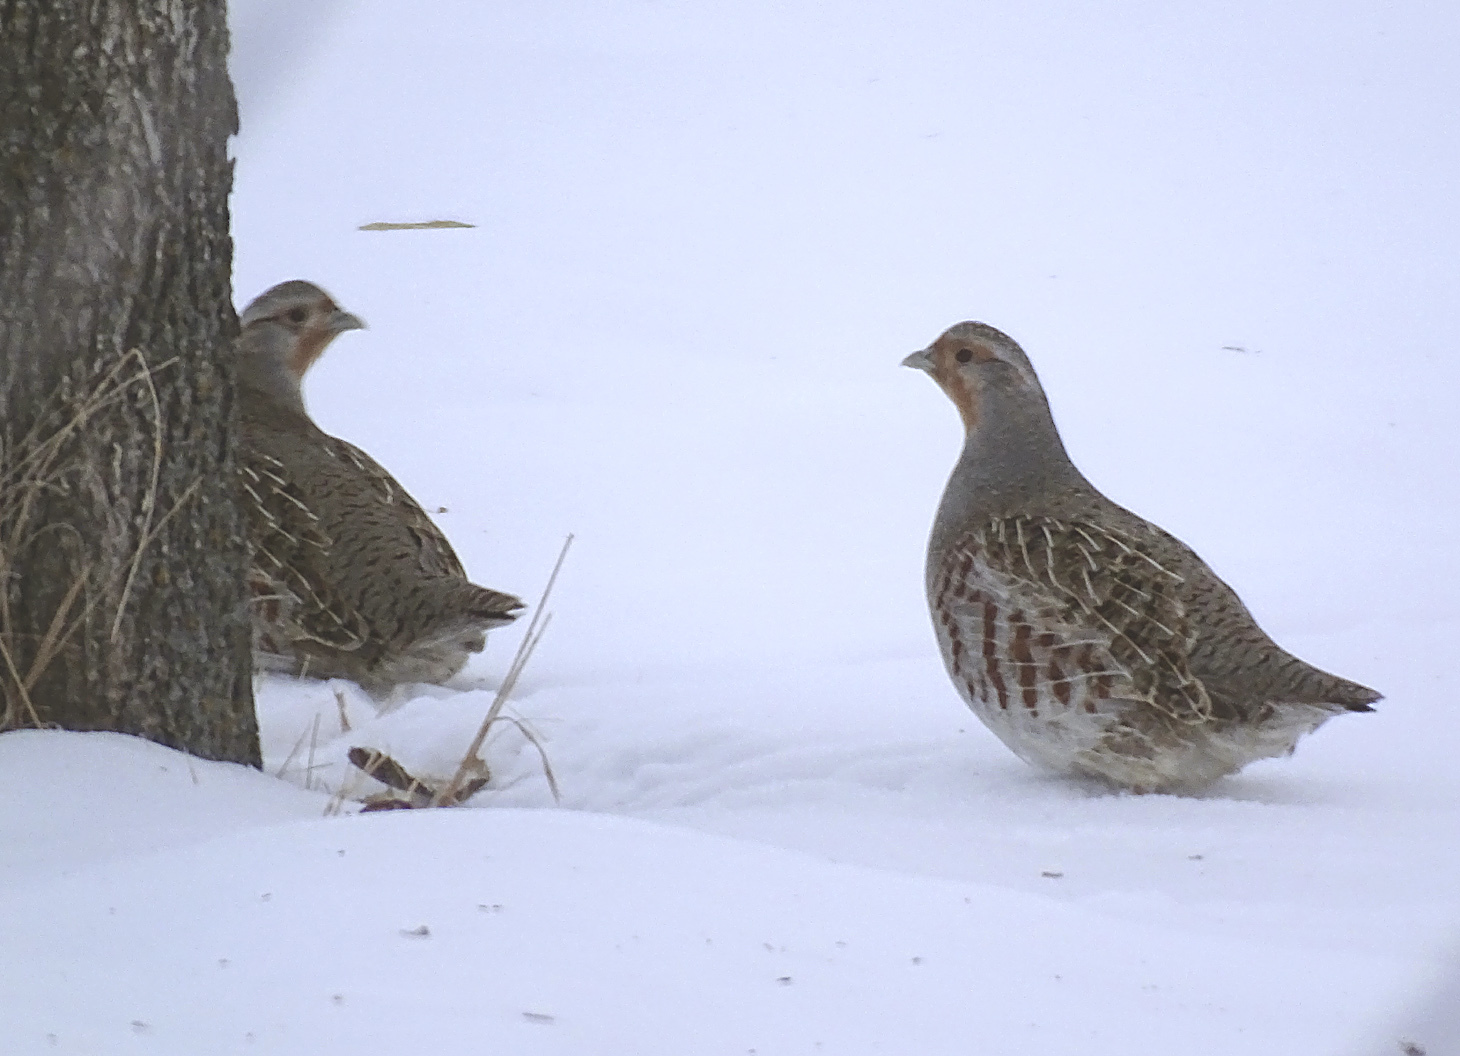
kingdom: Animalia
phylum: Chordata
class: Aves
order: Galliformes
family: Phasianidae
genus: Perdix
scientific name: Perdix perdix
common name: Grey partridge
